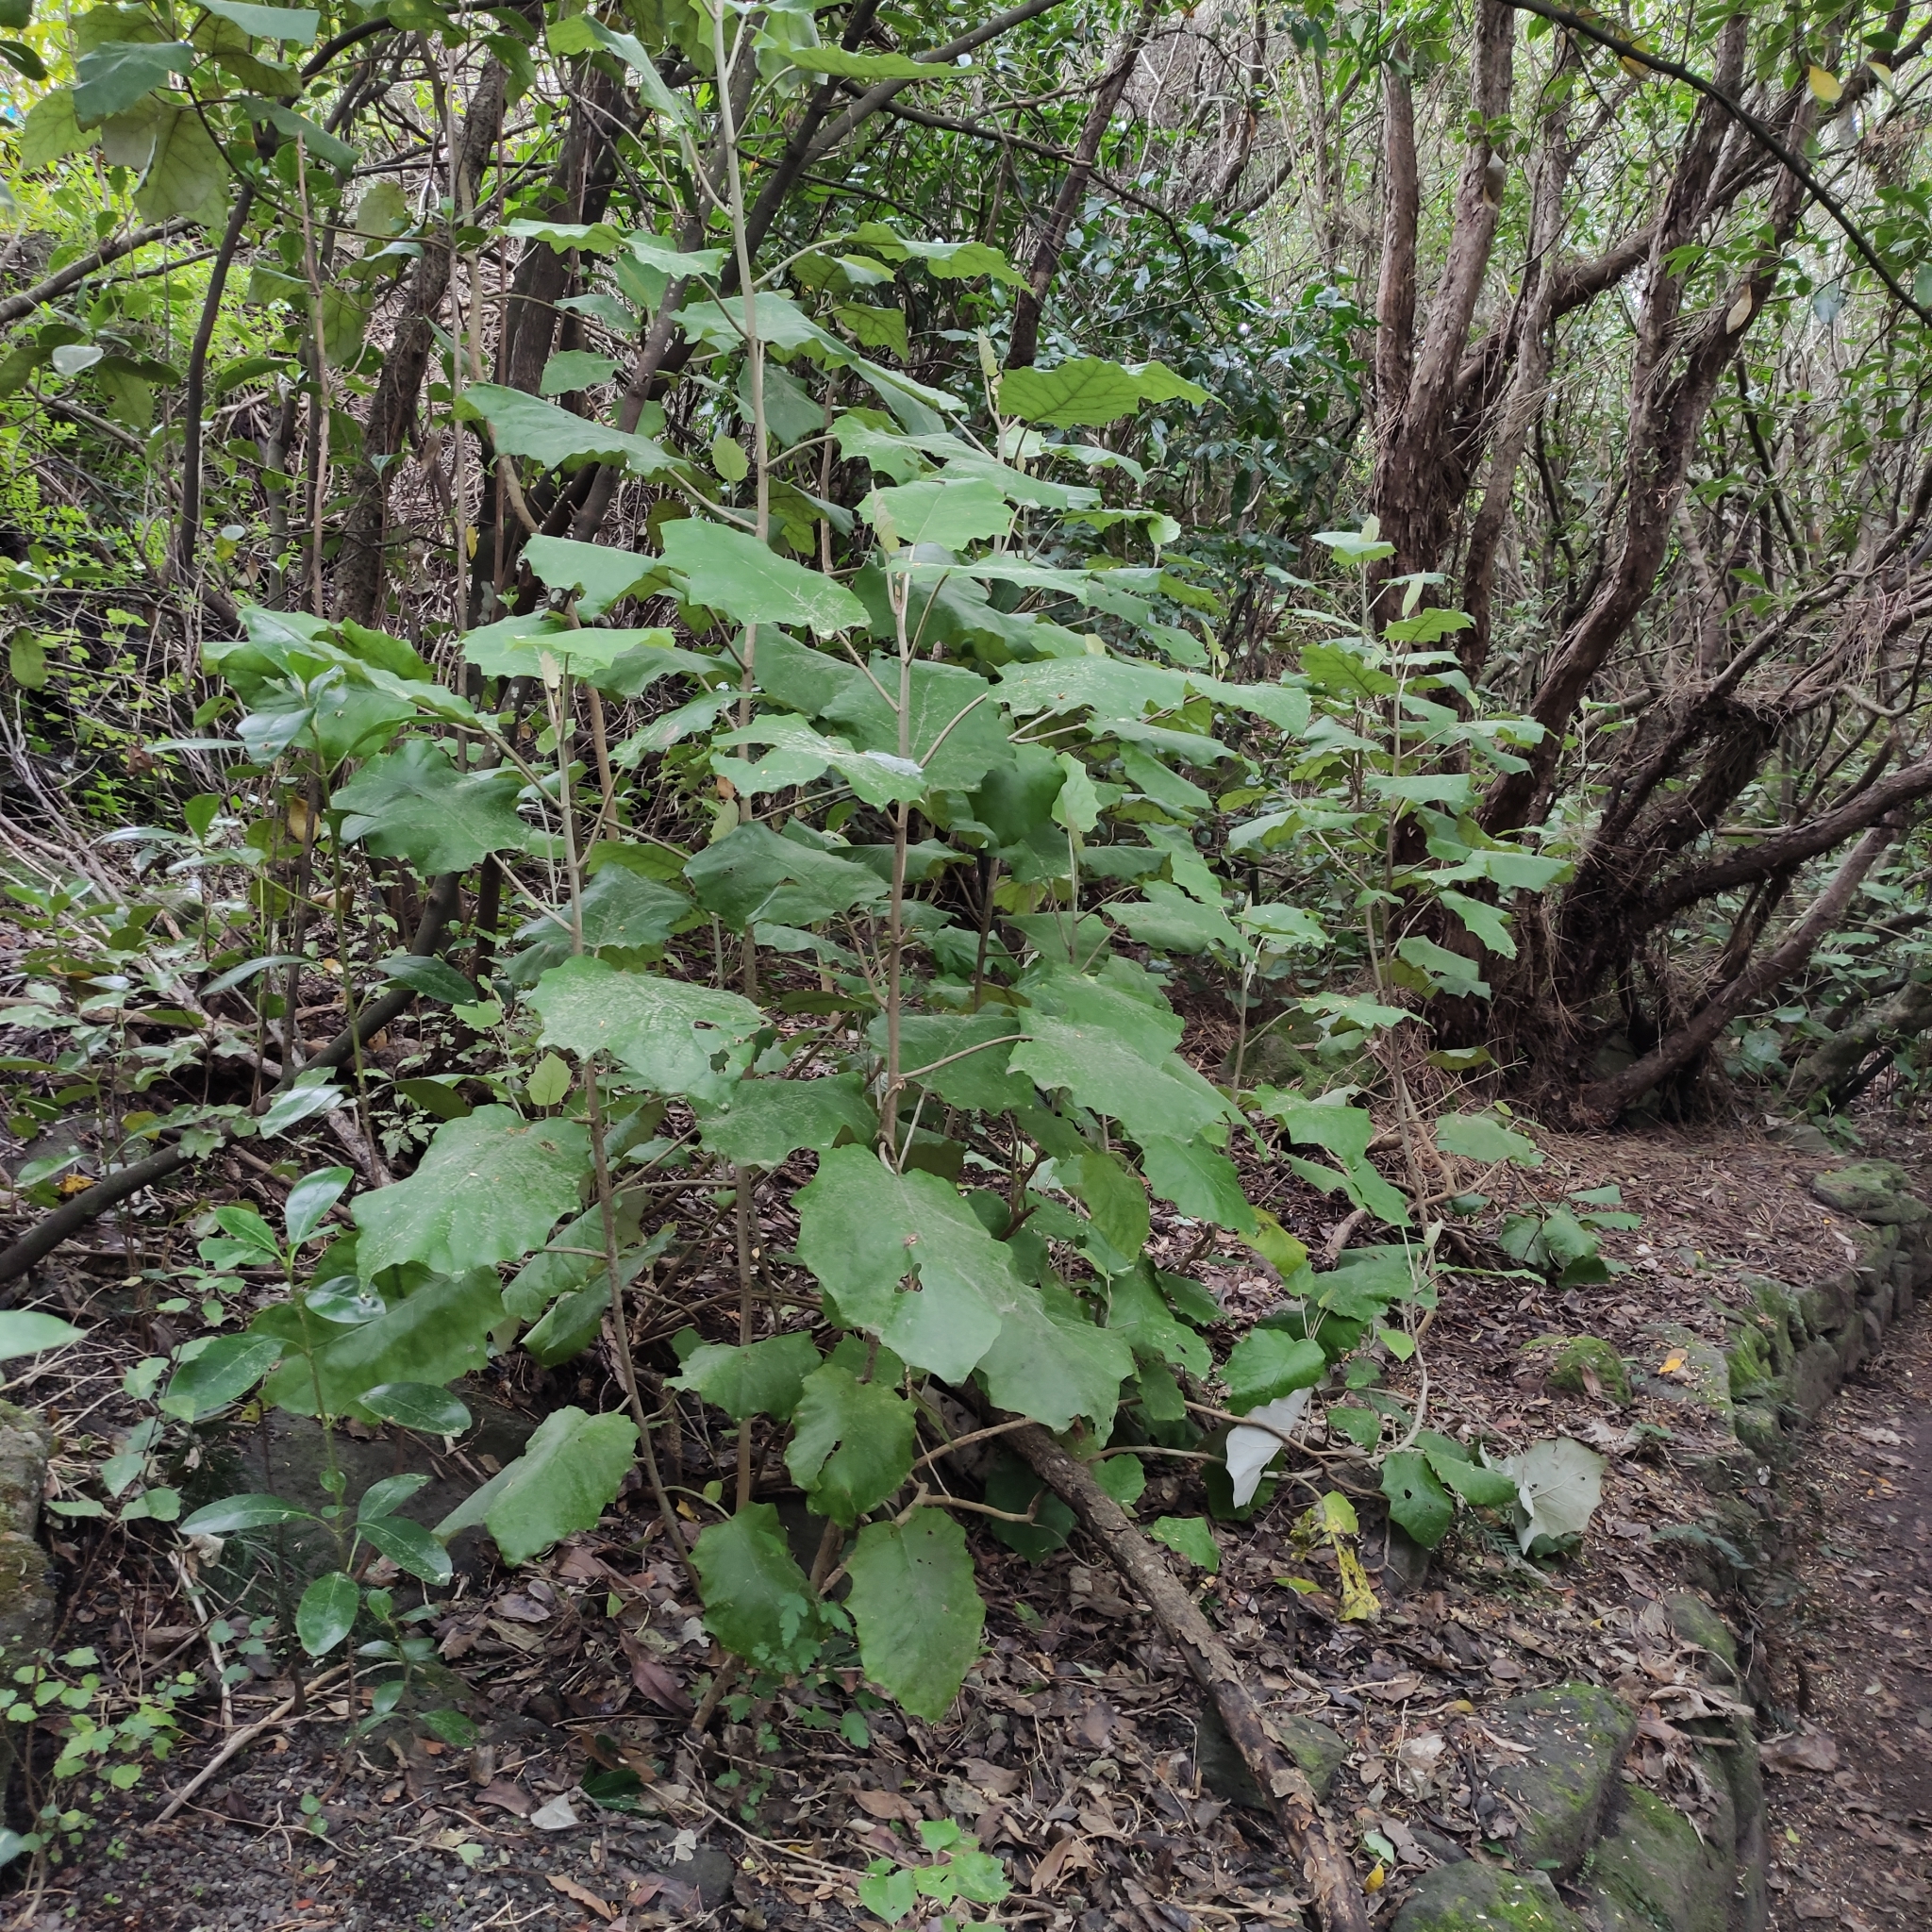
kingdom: Plantae
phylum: Tracheophyta
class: Magnoliopsida
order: Asterales
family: Asteraceae
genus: Brachyglottis
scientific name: Brachyglottis repanda
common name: Hedge ragwort
